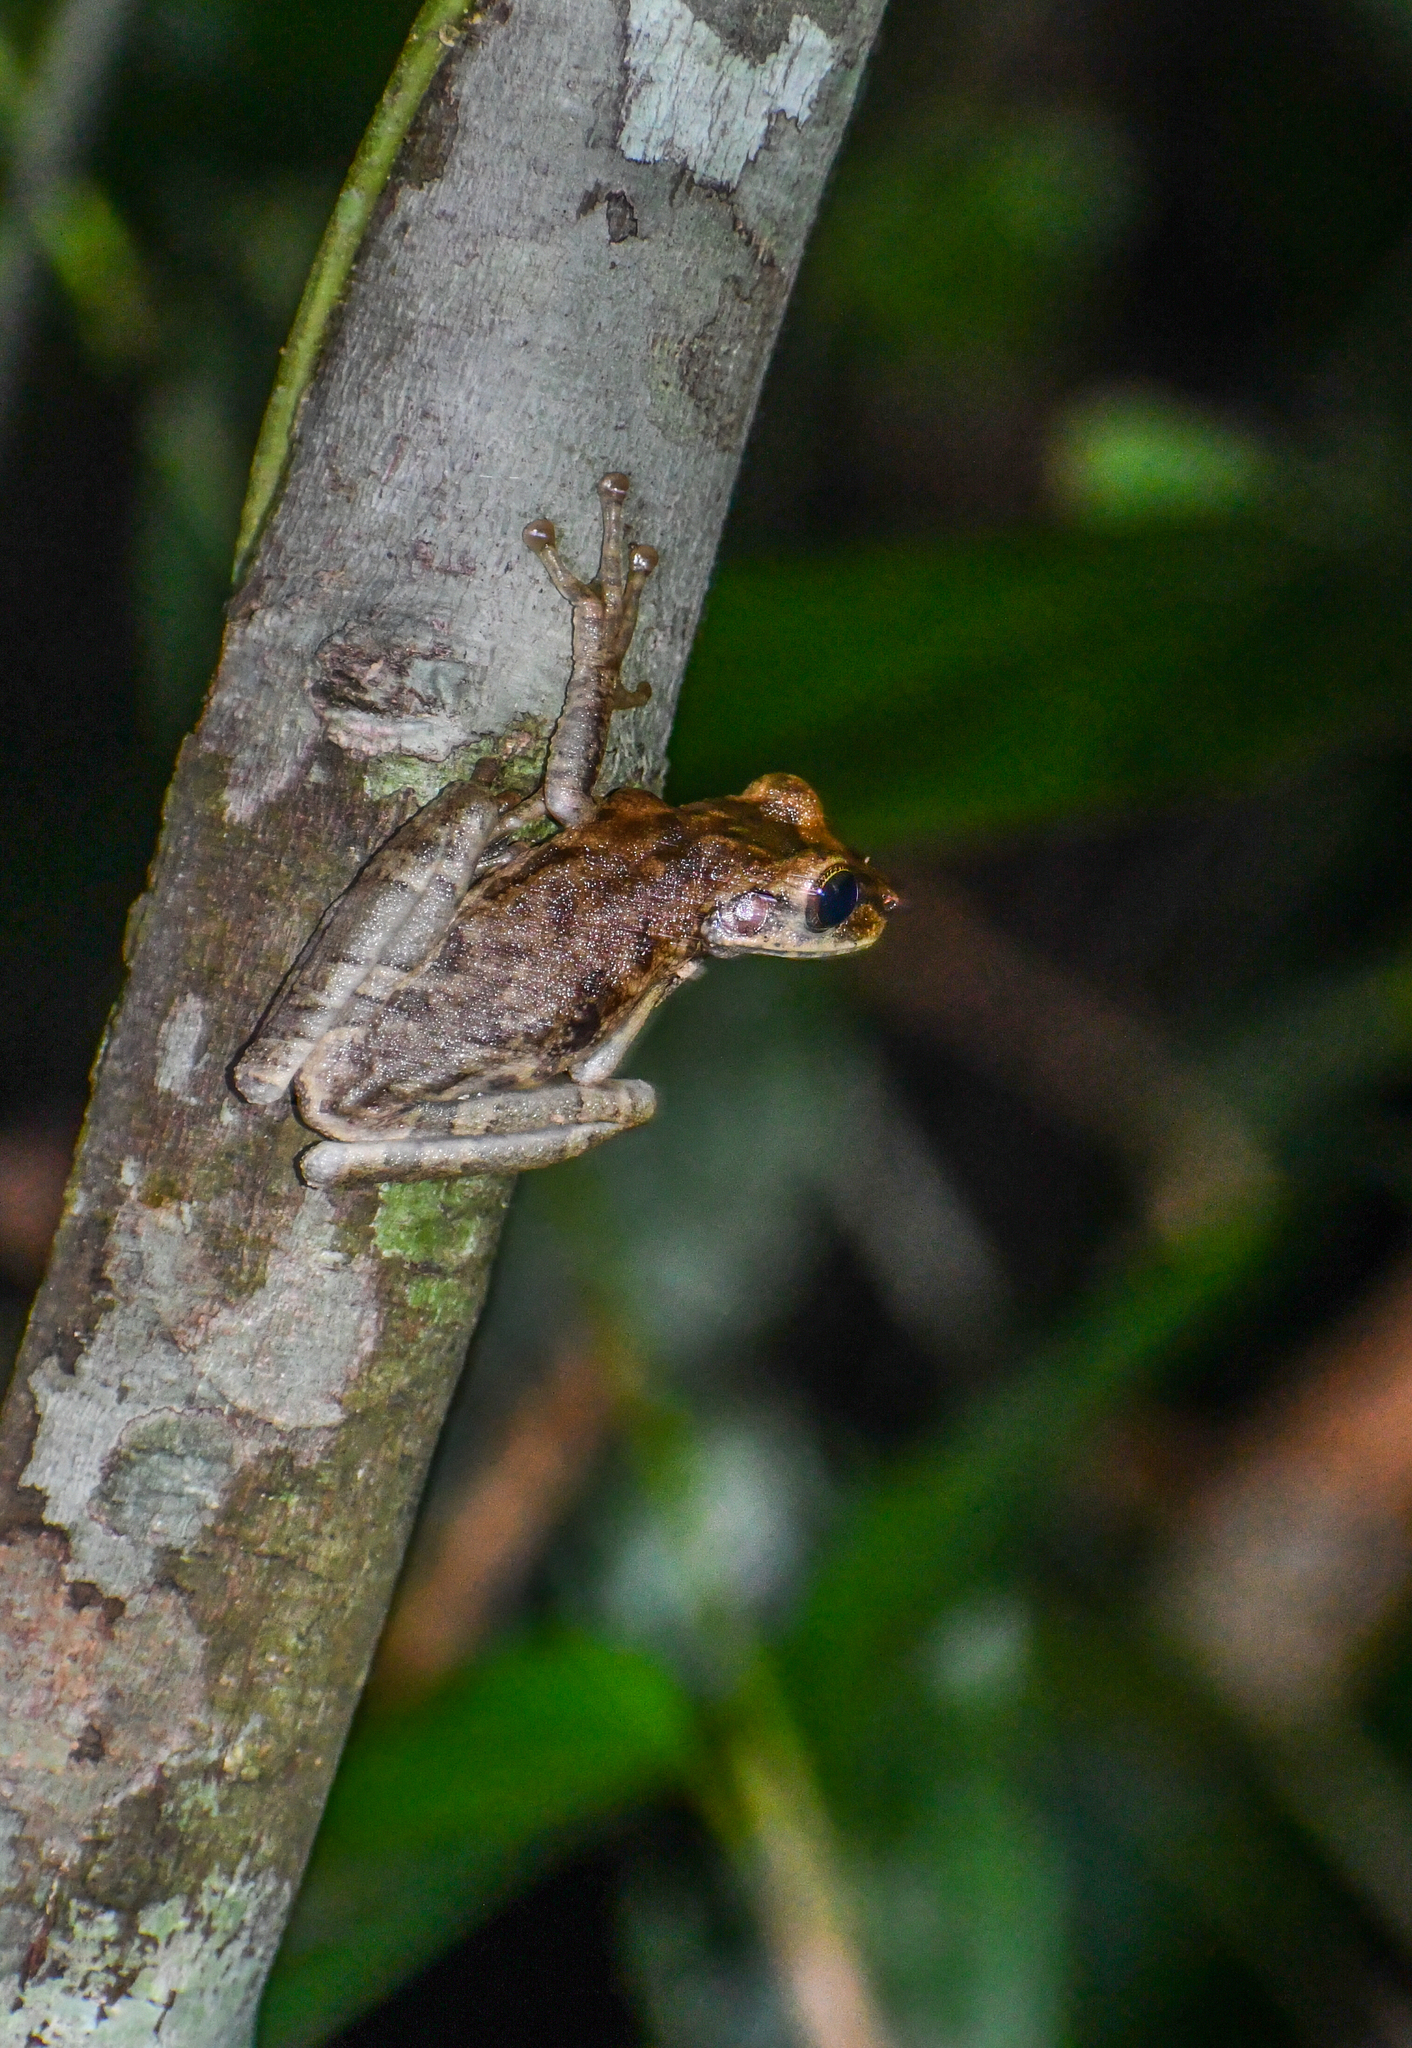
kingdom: Animalia
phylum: Chordata
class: Amphibia
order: Anura
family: Hylidae
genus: Osteocephalus
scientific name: Osteocephalus taurinus
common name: Manaus slender-legged treefrog
